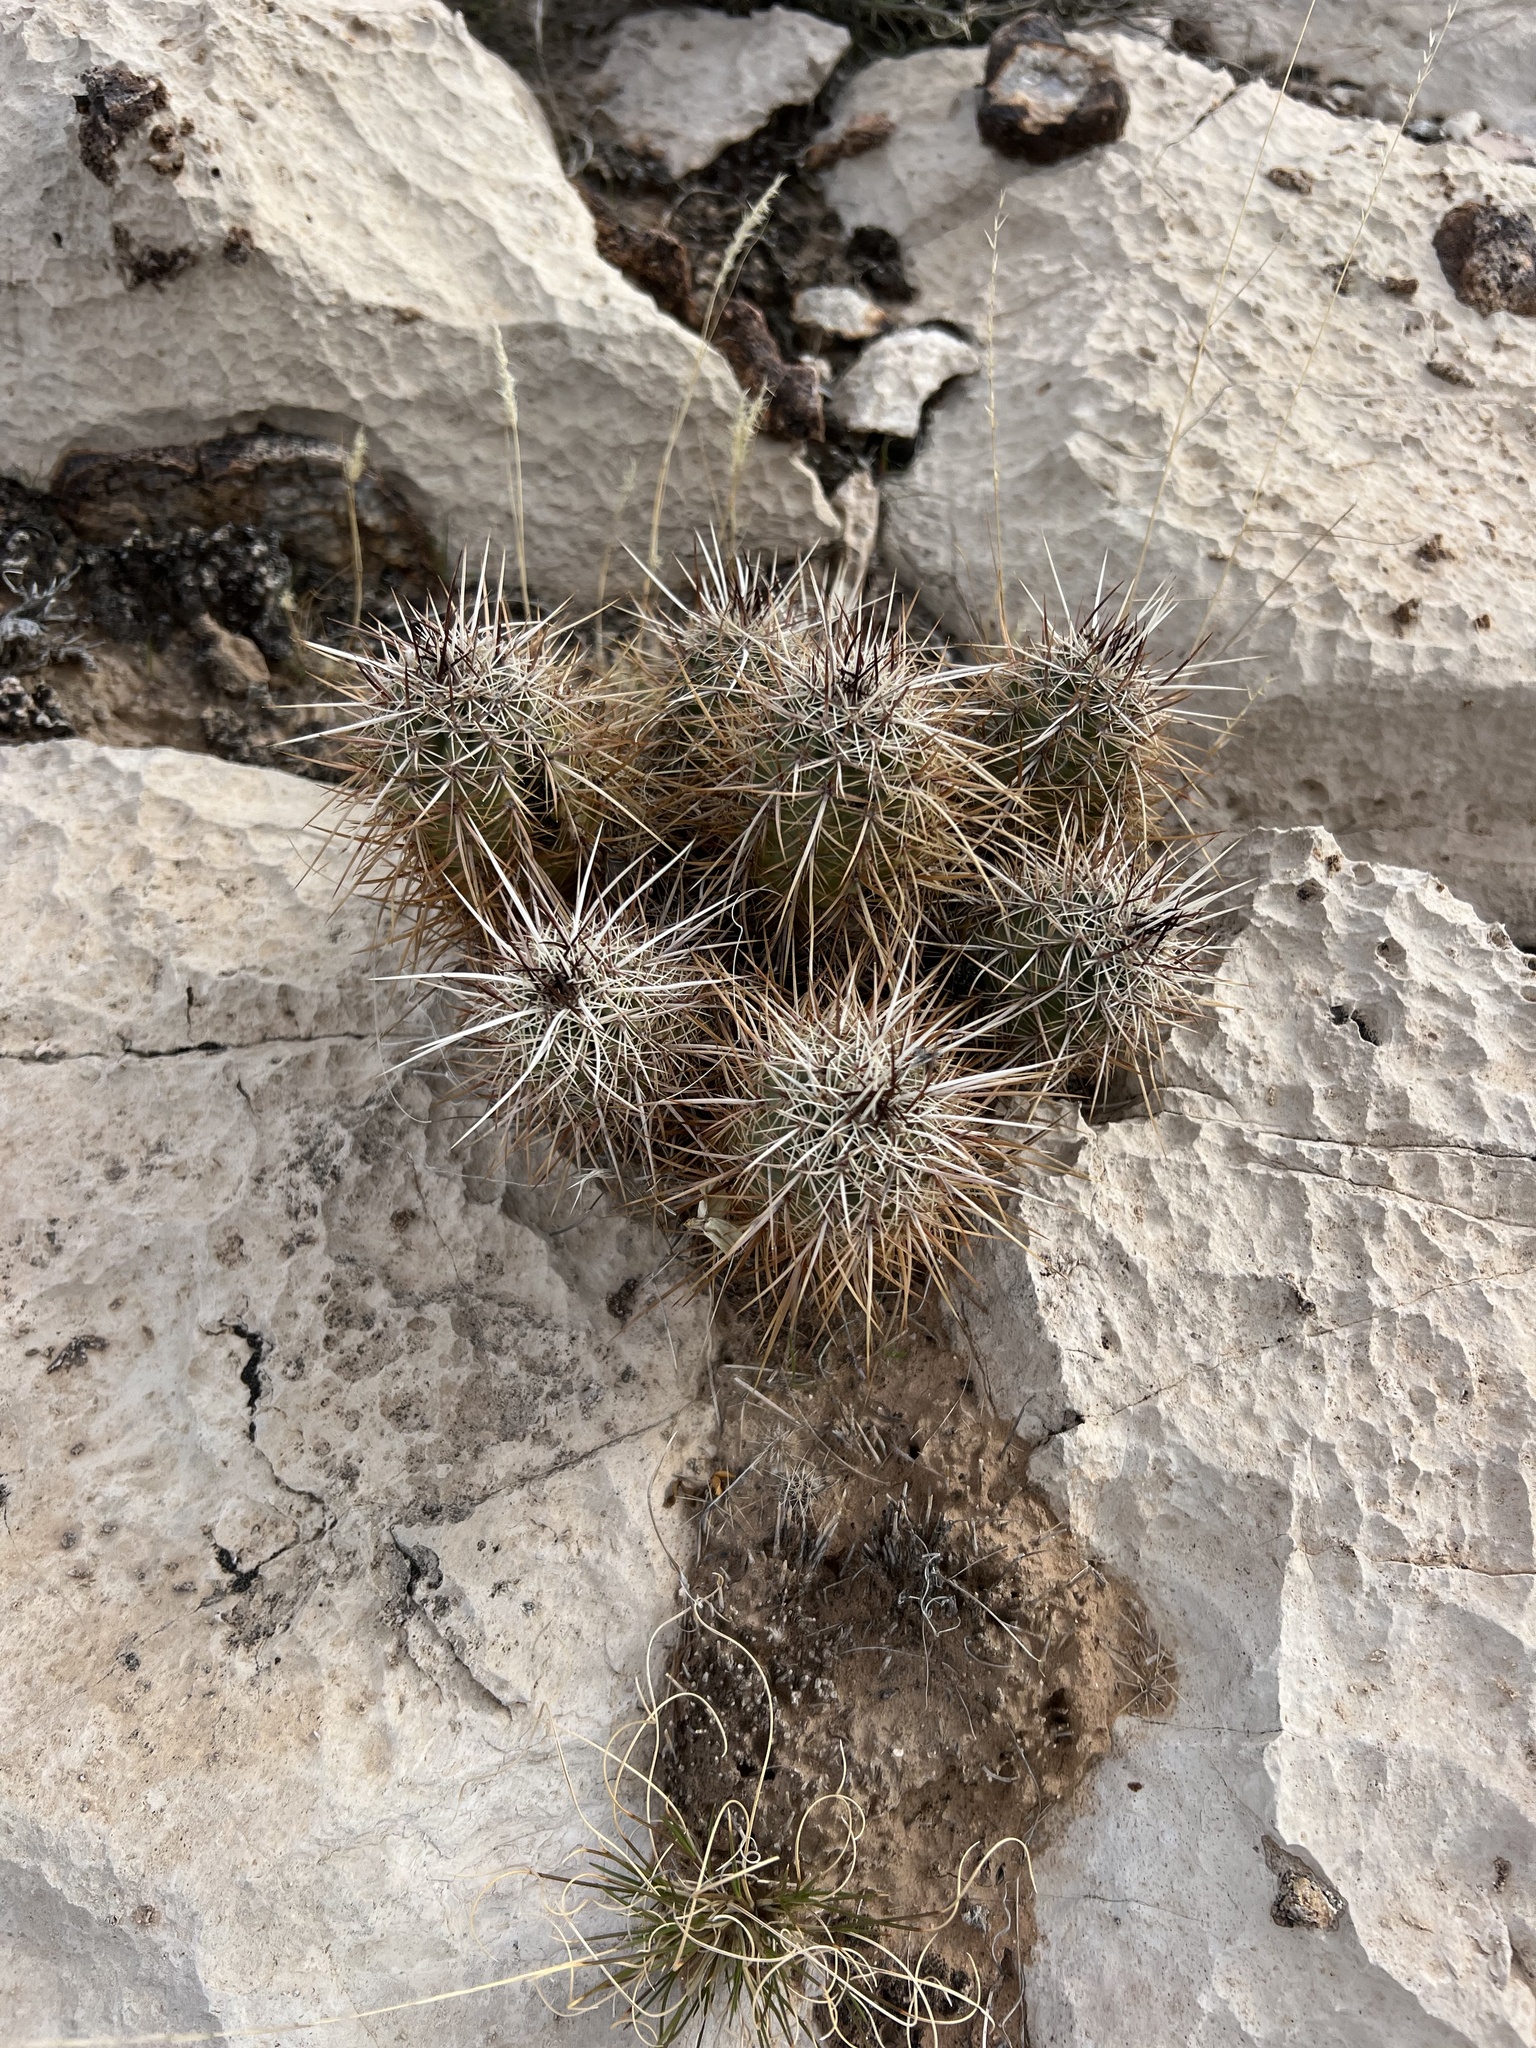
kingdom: Plantae
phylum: Tracheophyta
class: Magnoliopsida
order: Caryophyllales
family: Cactaceae
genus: Echinocereus
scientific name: Echinocereus engelmannii
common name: Engelmann's hedgehog cactus
